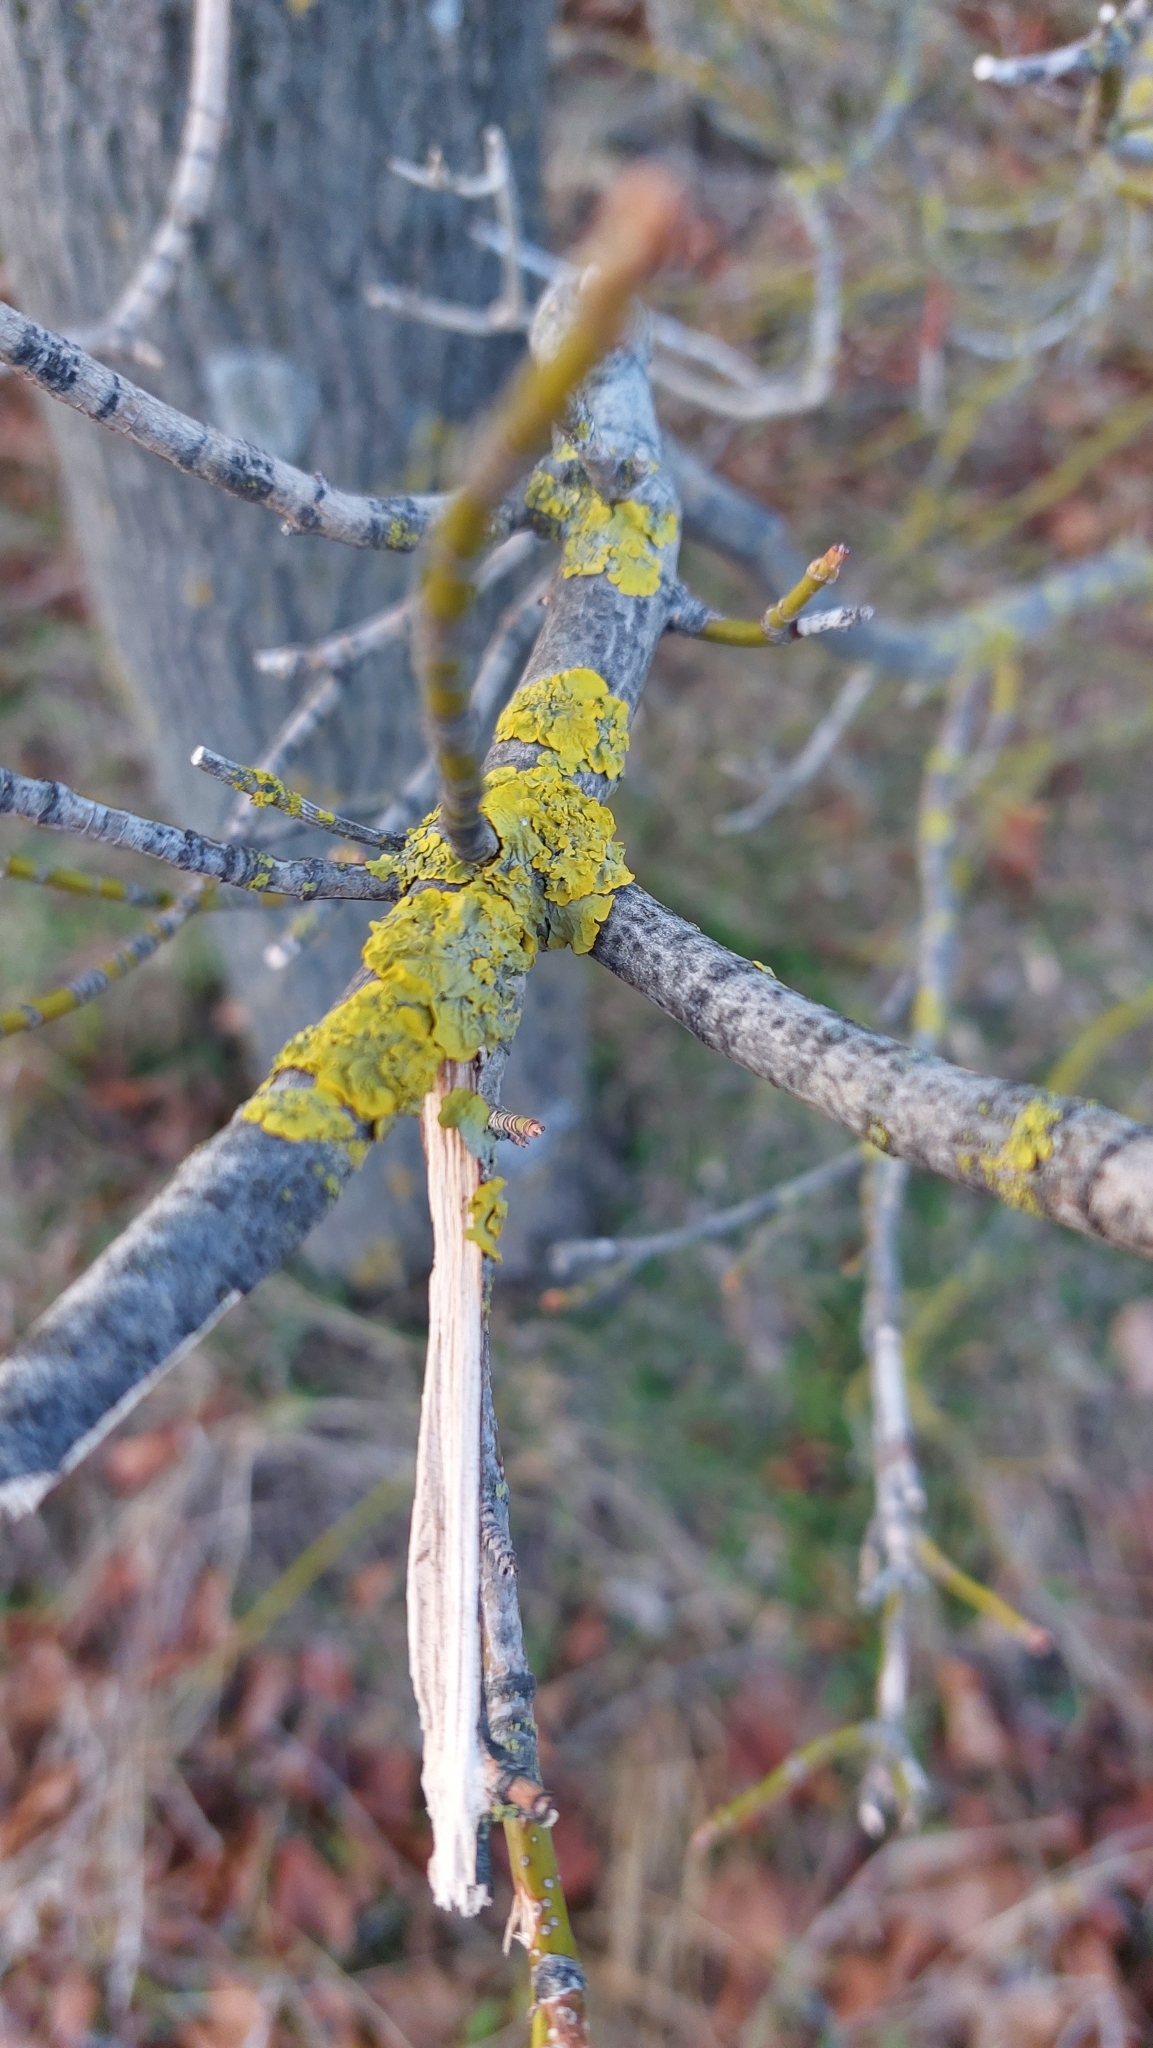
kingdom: Fungi
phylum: Ascomycota
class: Lecanoromycetes
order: Teloschistales
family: Teloschistaceae
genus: Xanthoria
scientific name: Xanthoria parietina
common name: Common orange lichen
